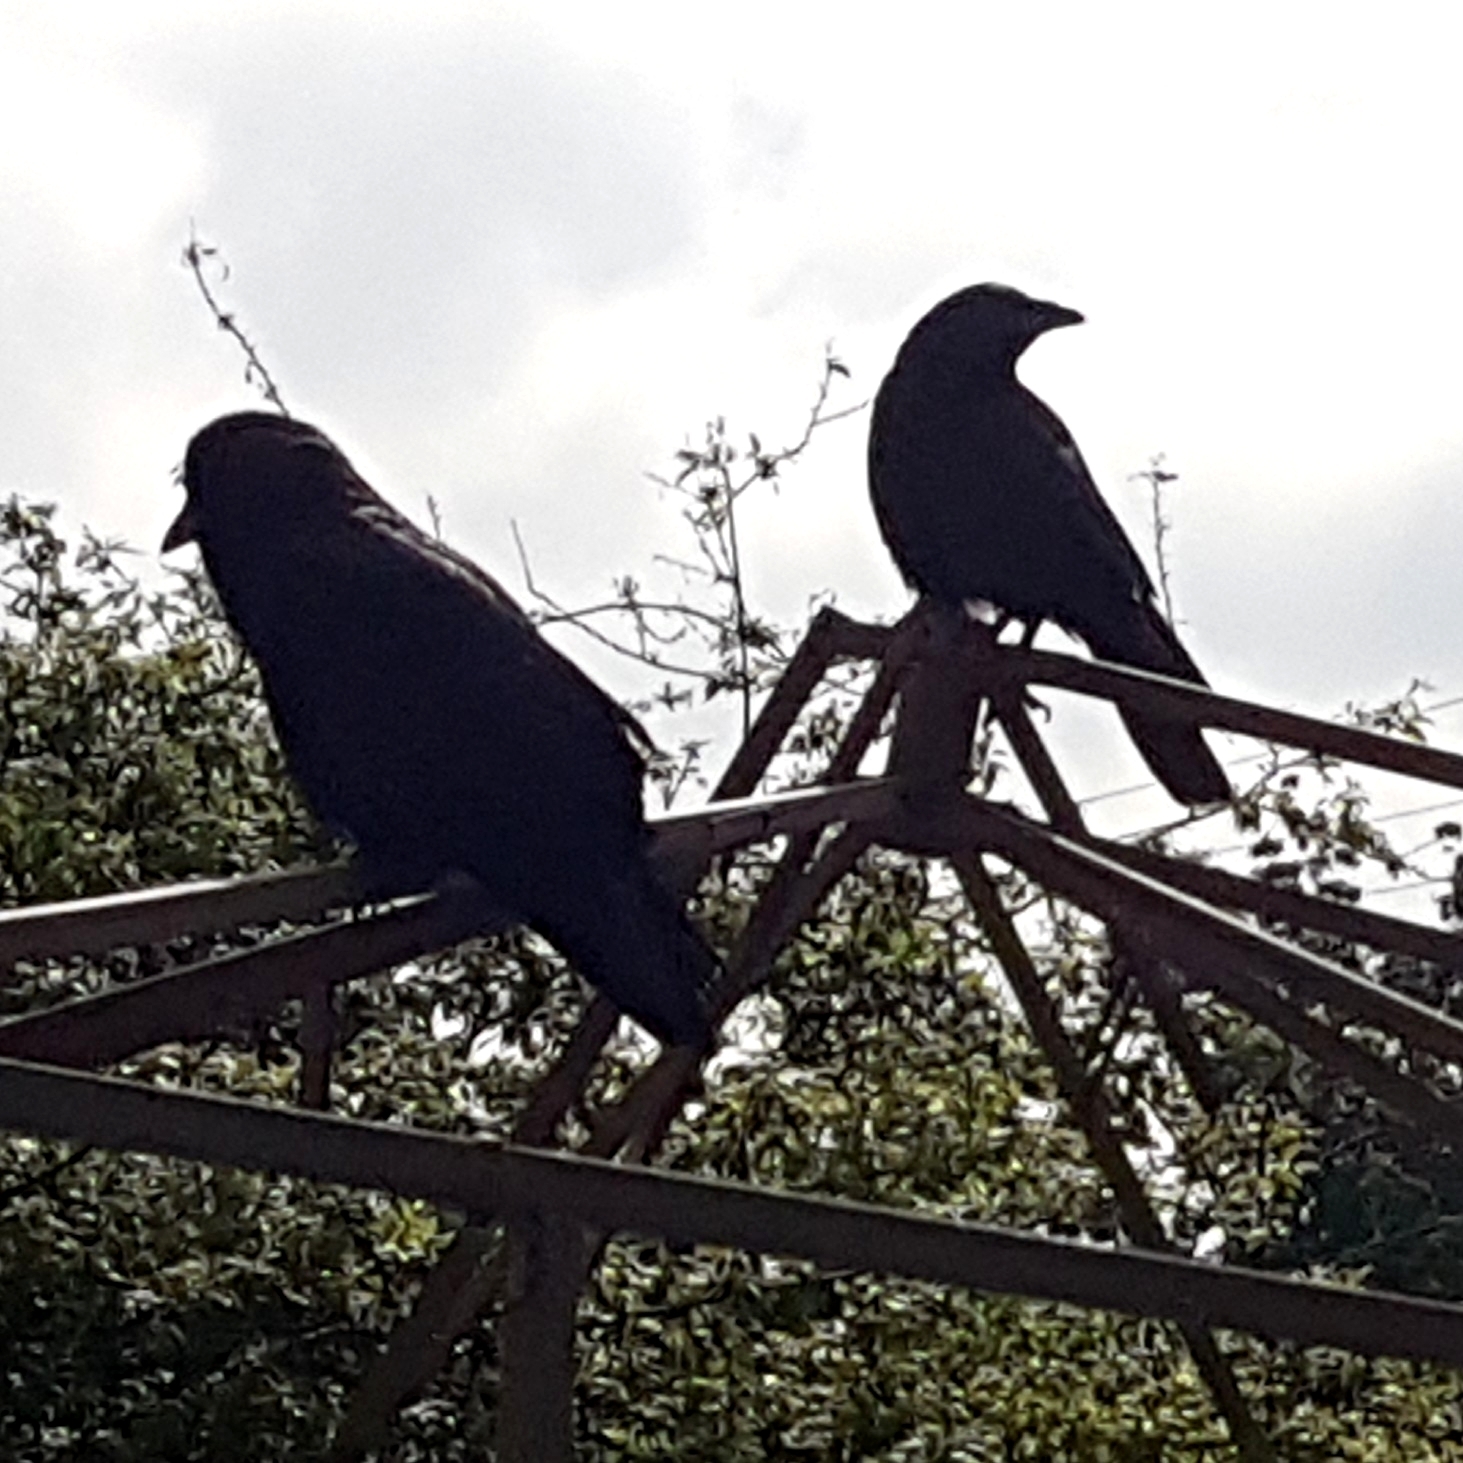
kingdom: Animalia
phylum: Chordata
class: Aves
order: Passeriformes
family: Corvidae
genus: Corvus
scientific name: Corvus brachyrhynchos
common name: American crow
